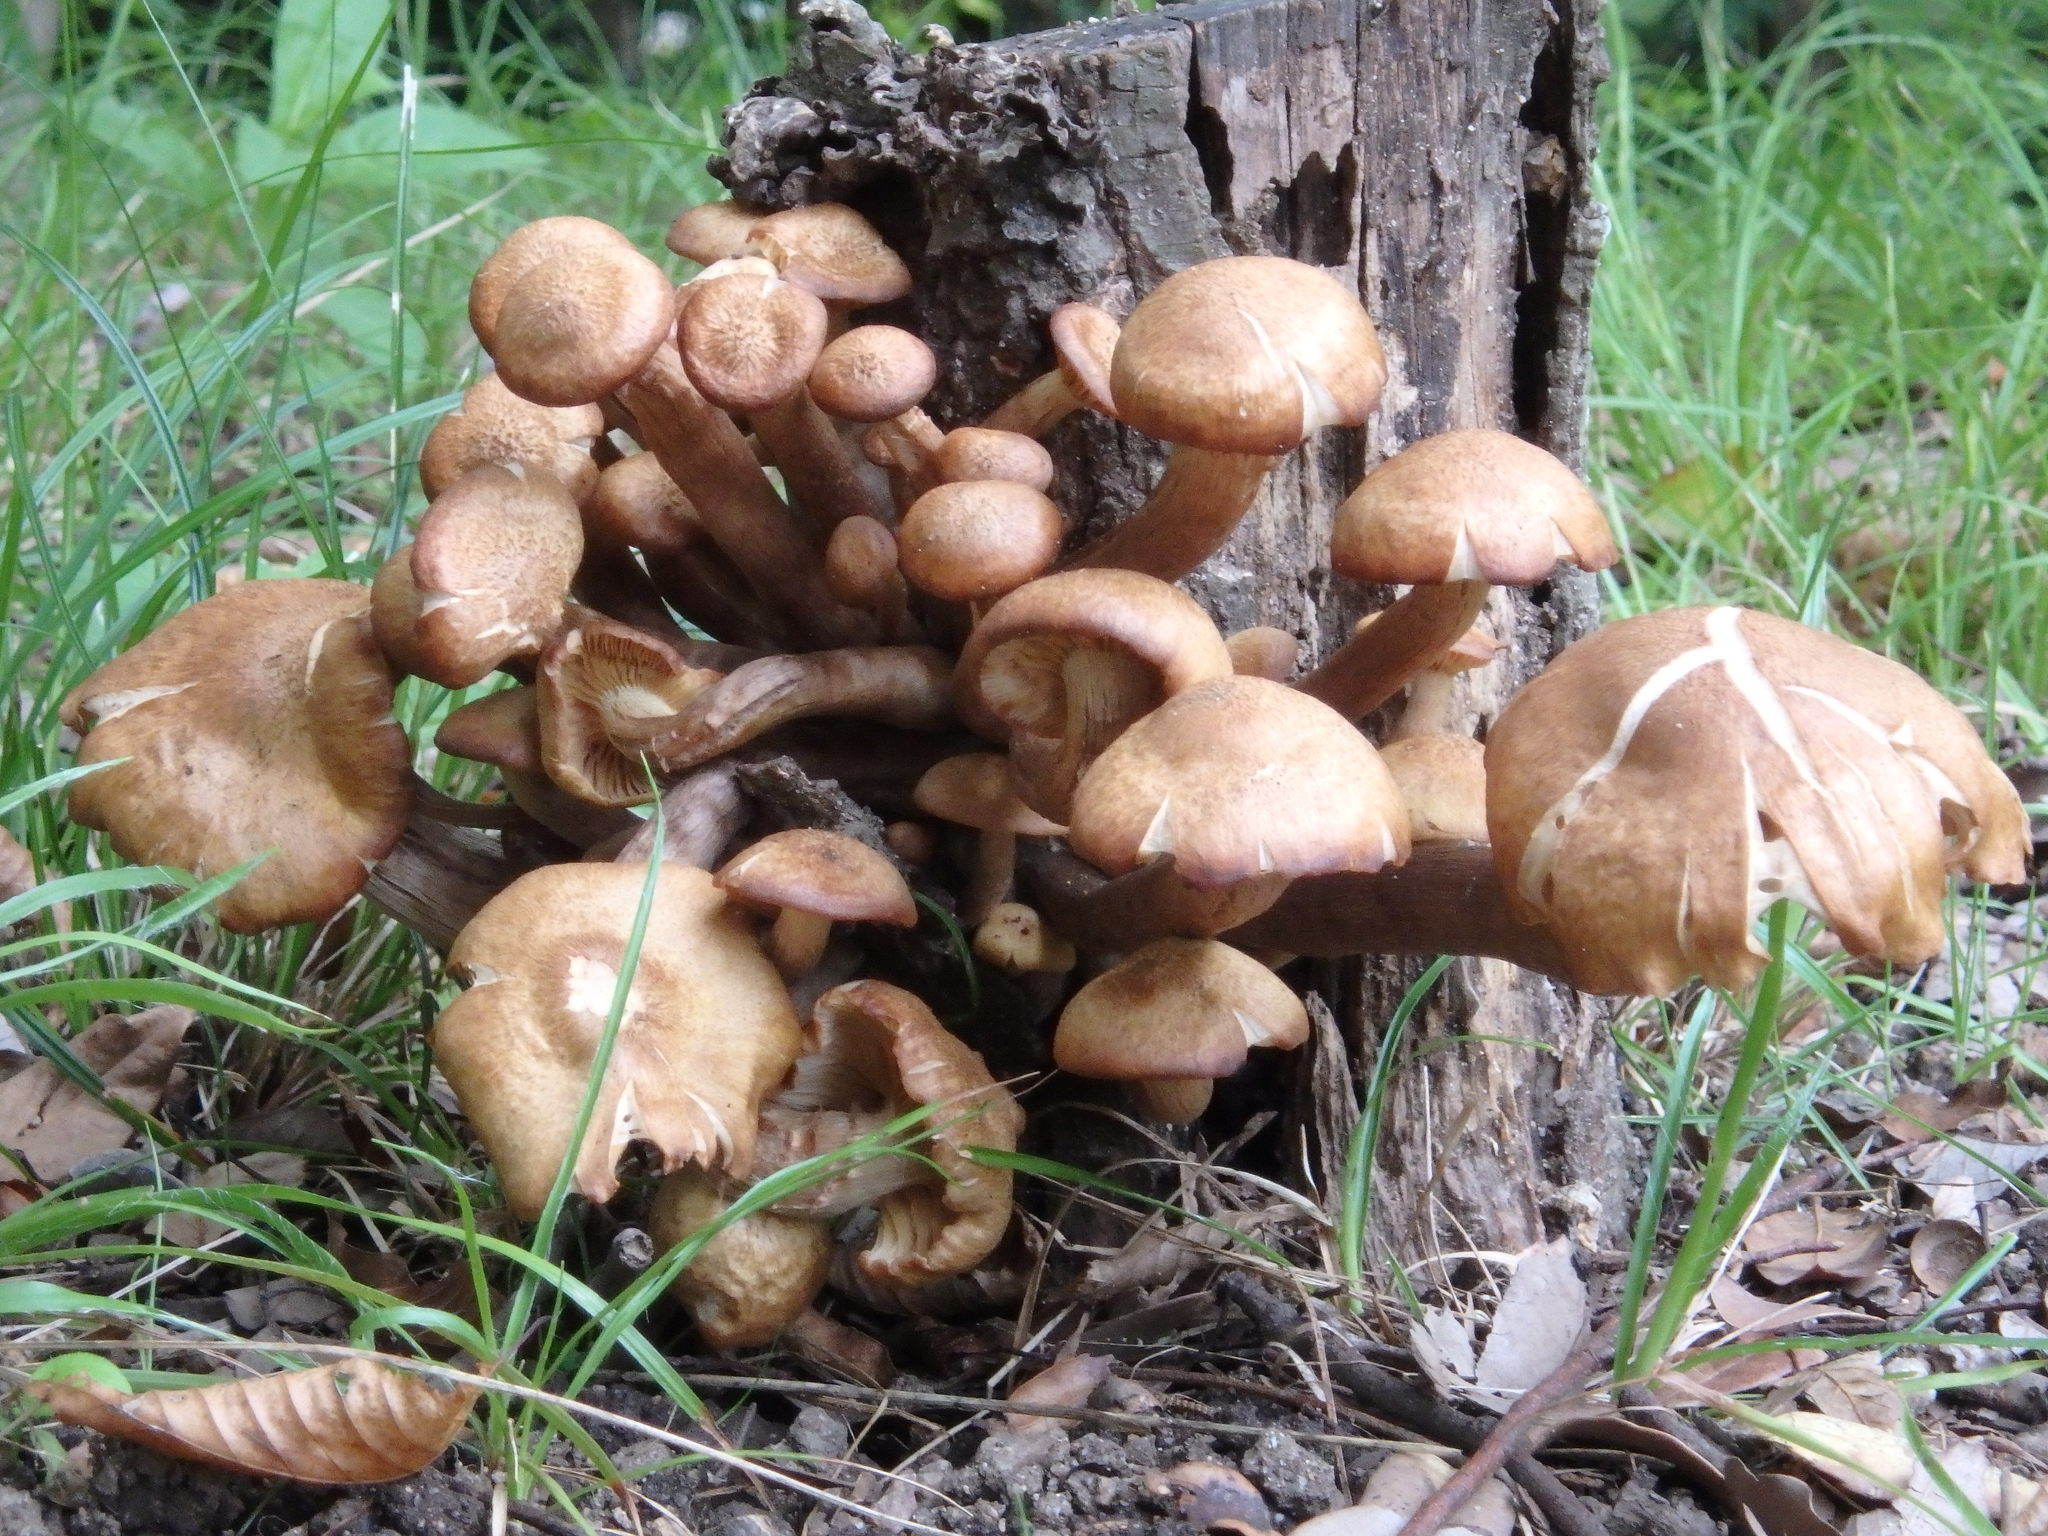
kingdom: Fungi
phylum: Basidiomycota
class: Agaricomycetes
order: Agaricales
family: Physalacriaceae
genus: Desarmillaria
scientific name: Desarmillaria tabescens
